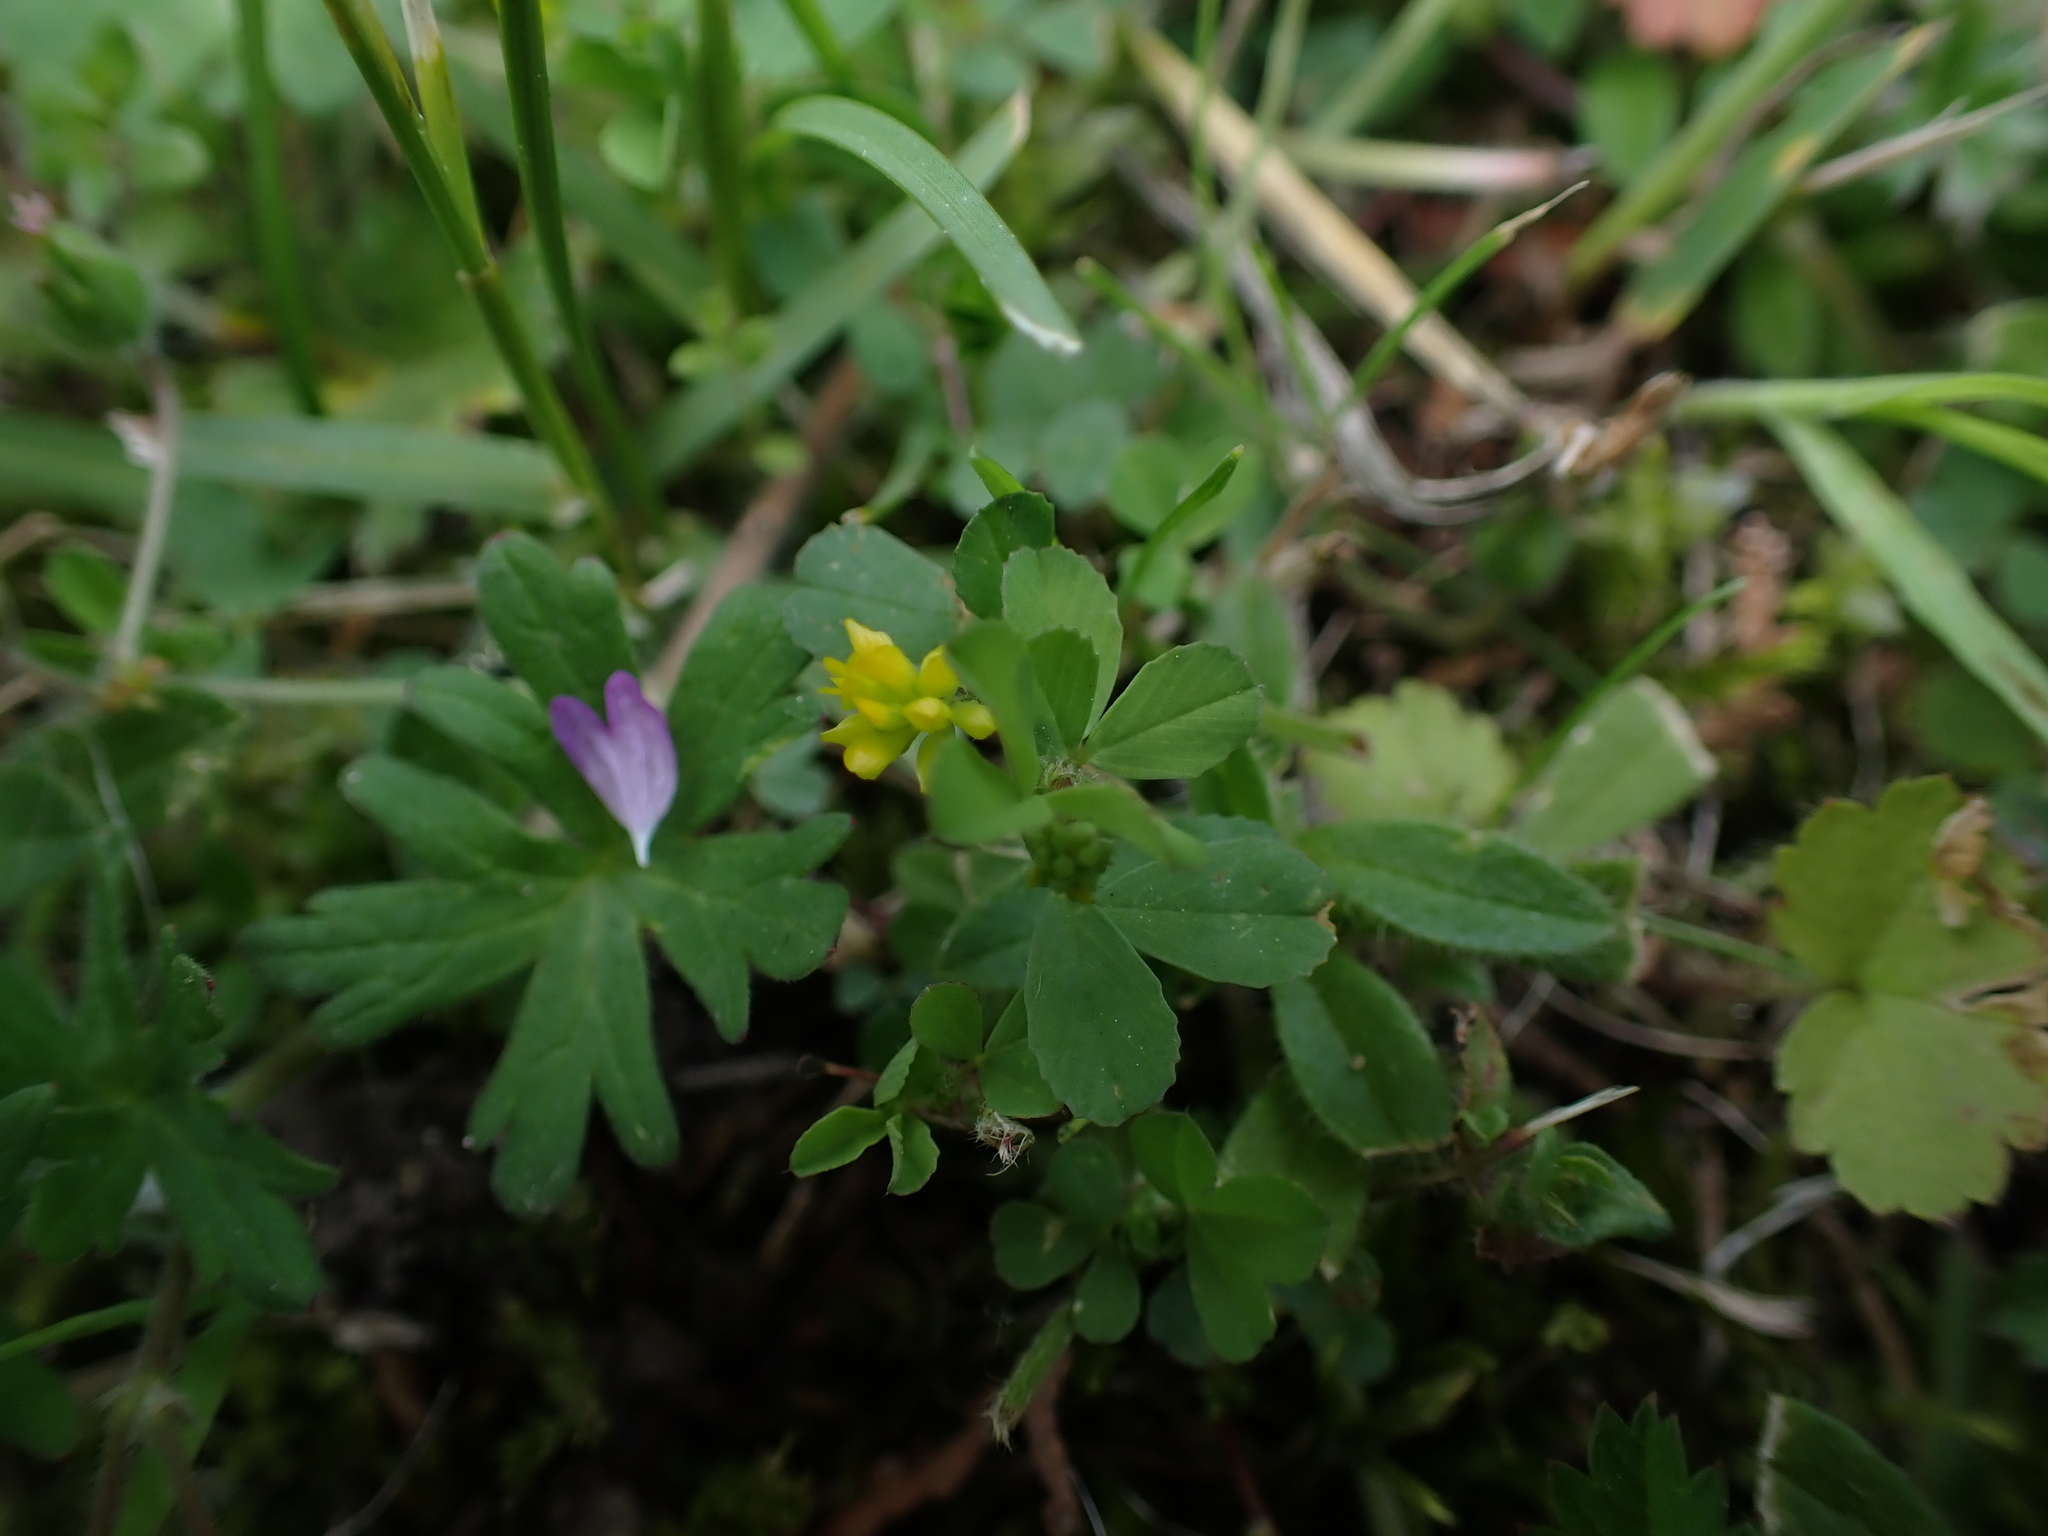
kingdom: Plantae
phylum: Tracheophyta
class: Magnoliopsida
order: Fabales
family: Fabaceae
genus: Trifolium
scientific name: Trifolium dubium
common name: Suckling clover
